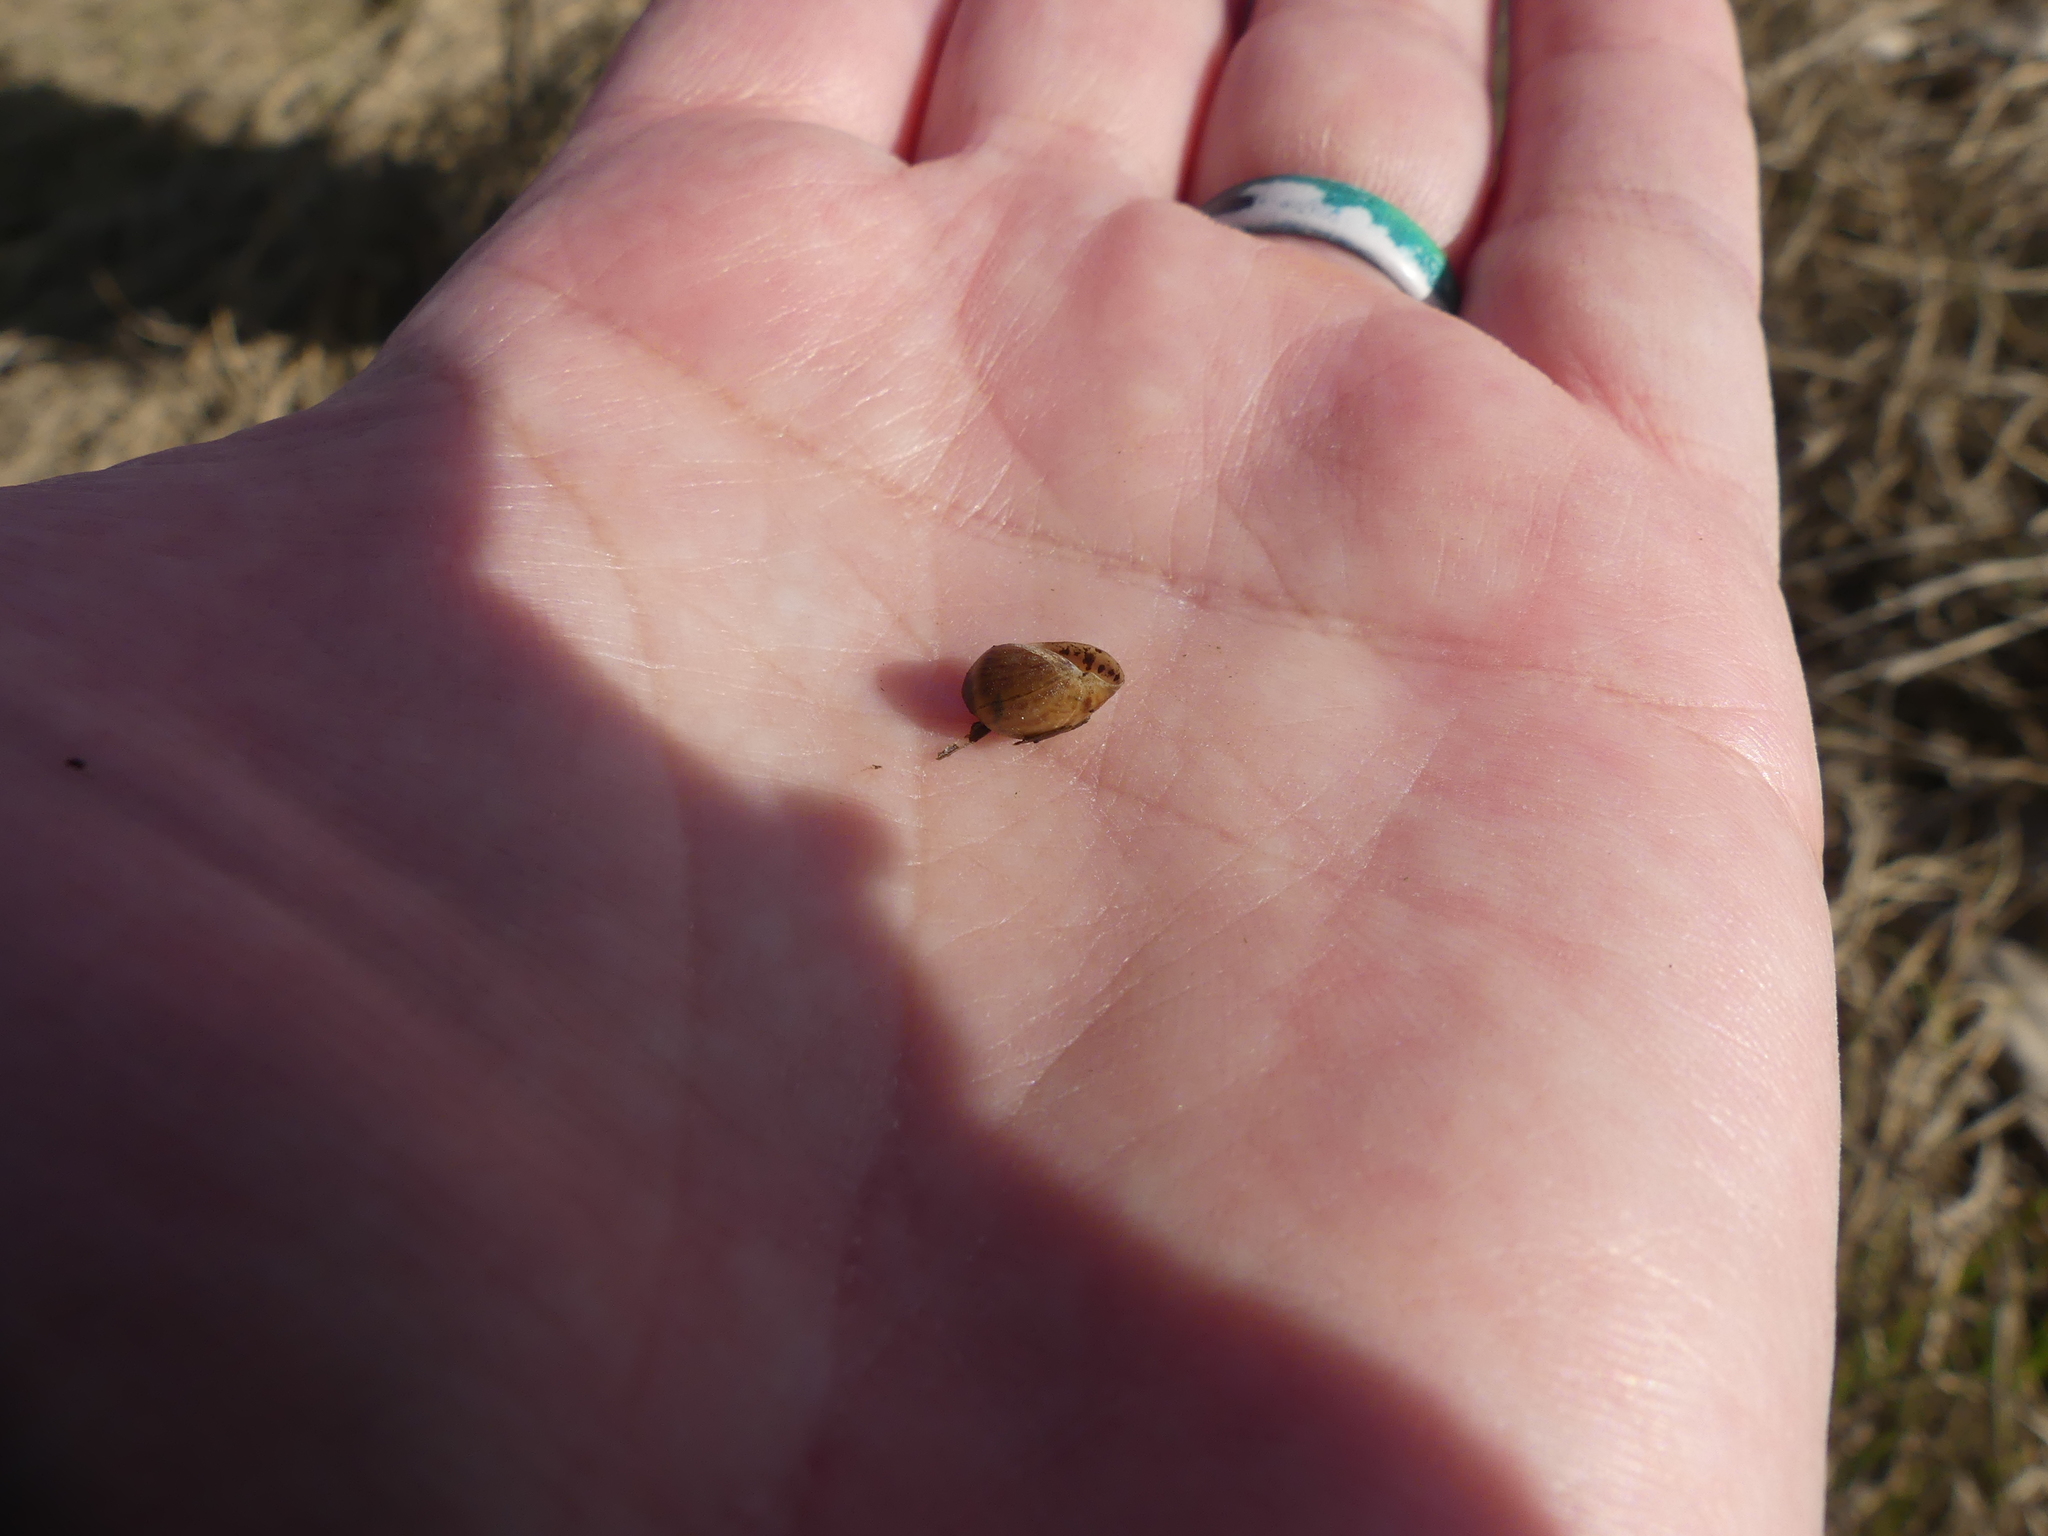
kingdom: Animalia
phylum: Mollusca
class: Gastropoda
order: Ellobiida
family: Ellobiidae
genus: Melampus
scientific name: Melampus bidentatus
